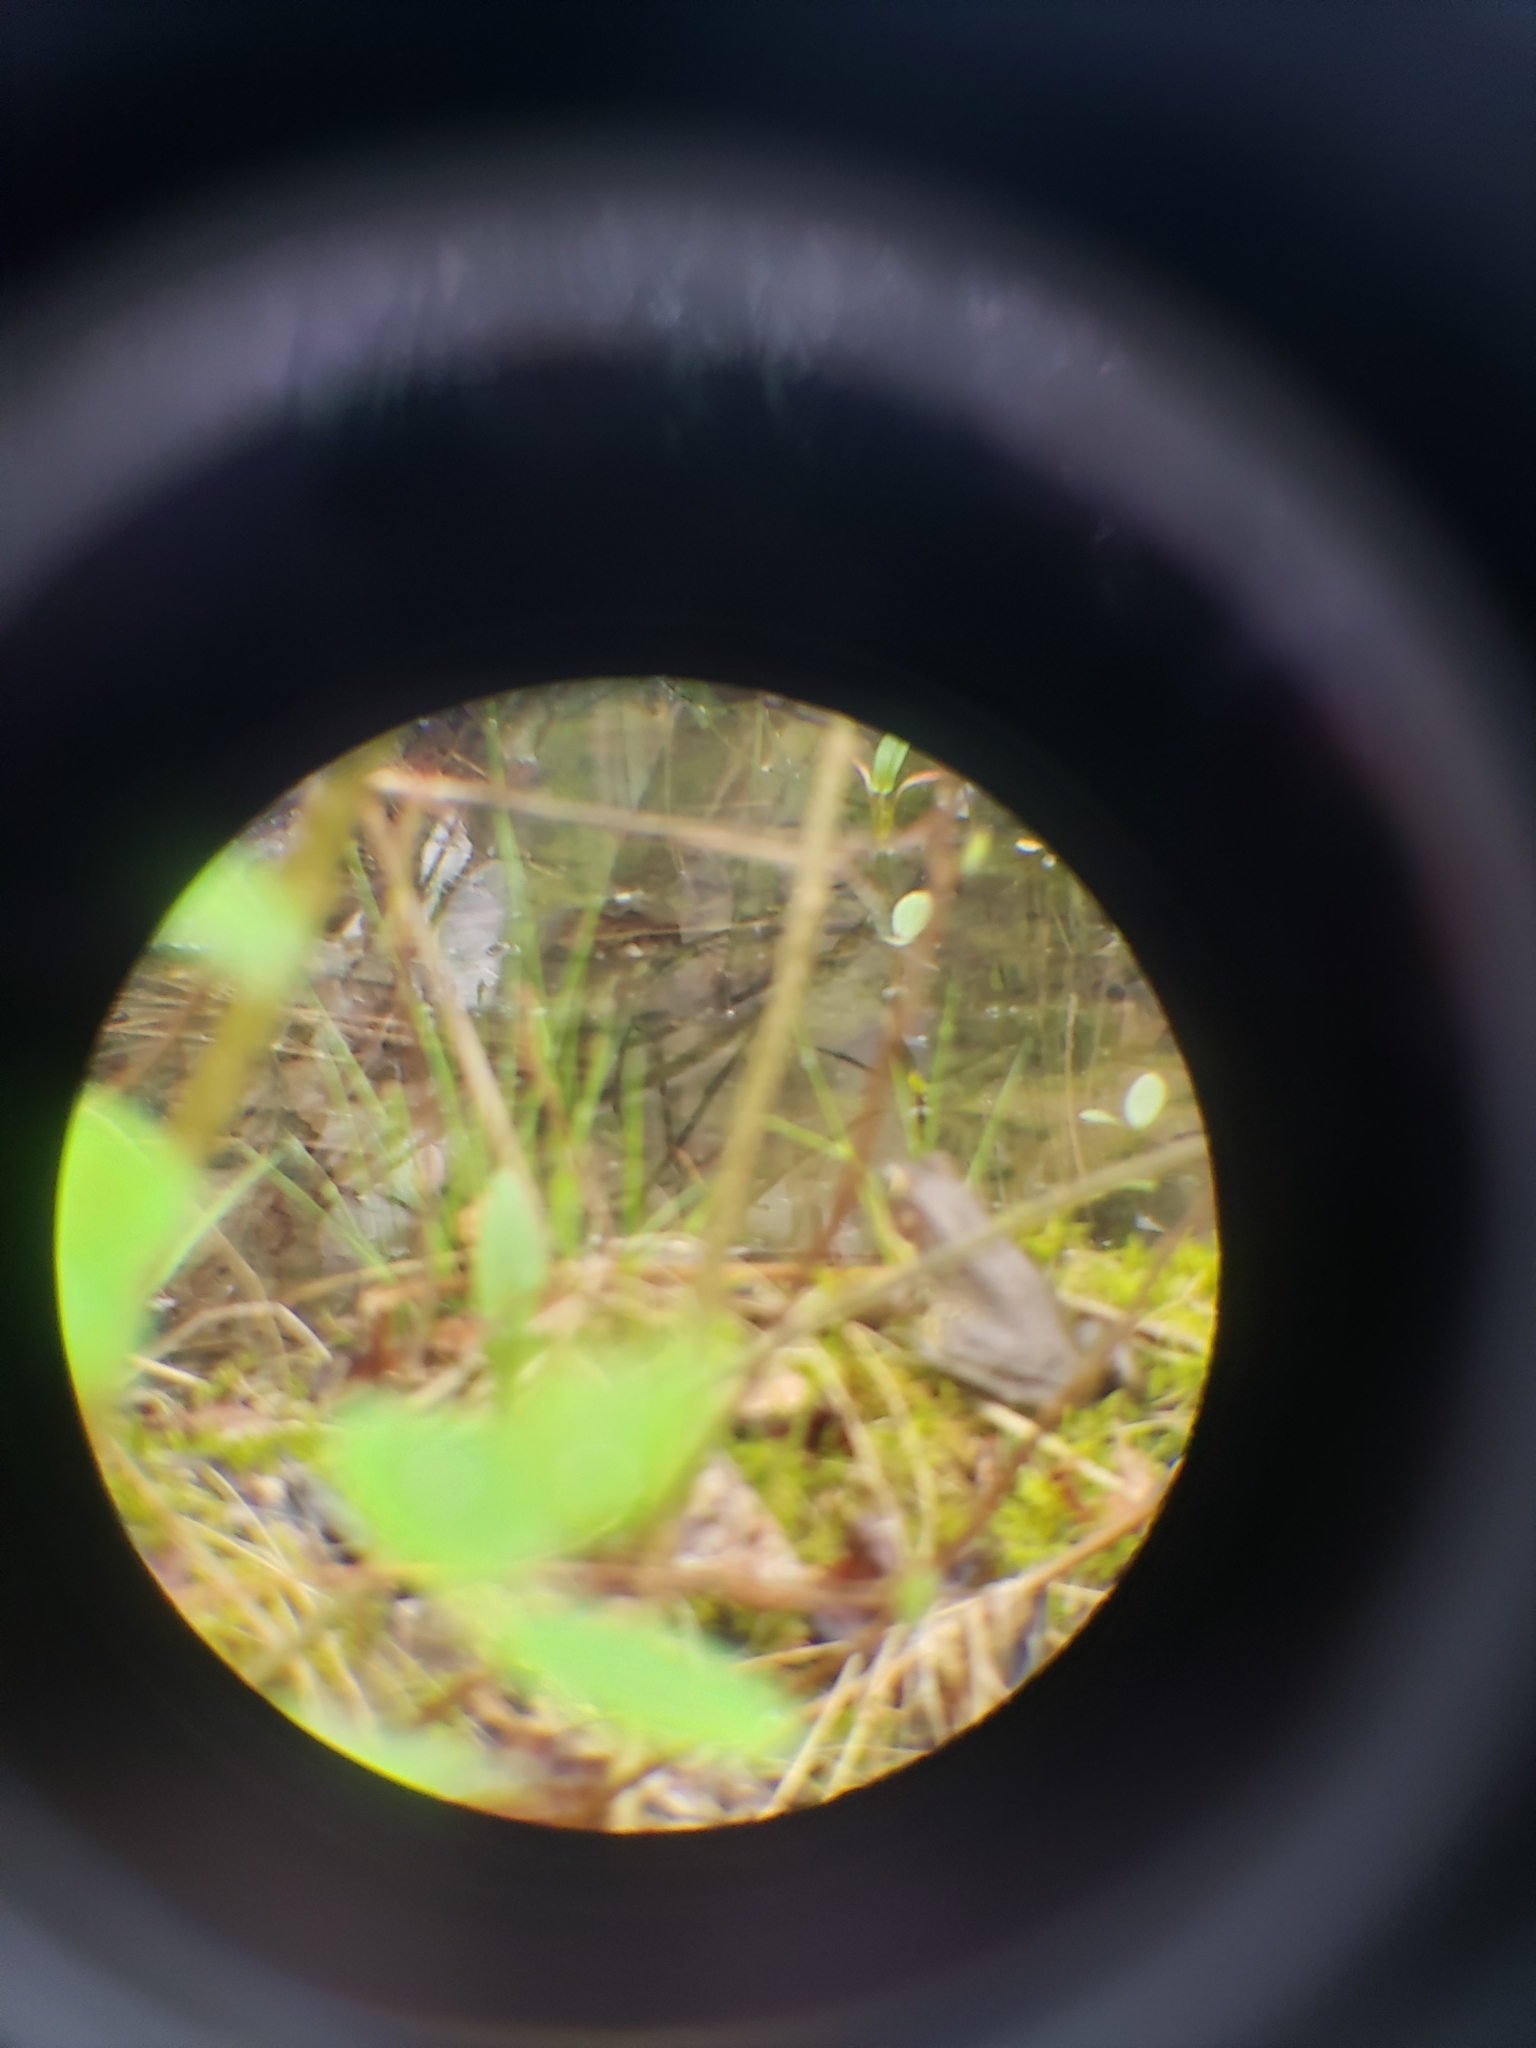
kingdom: Animalia
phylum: Chordata
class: Amphibia
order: Anura
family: Ranidae
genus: Lithobates
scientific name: Lithobates clamitans
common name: Green frog
